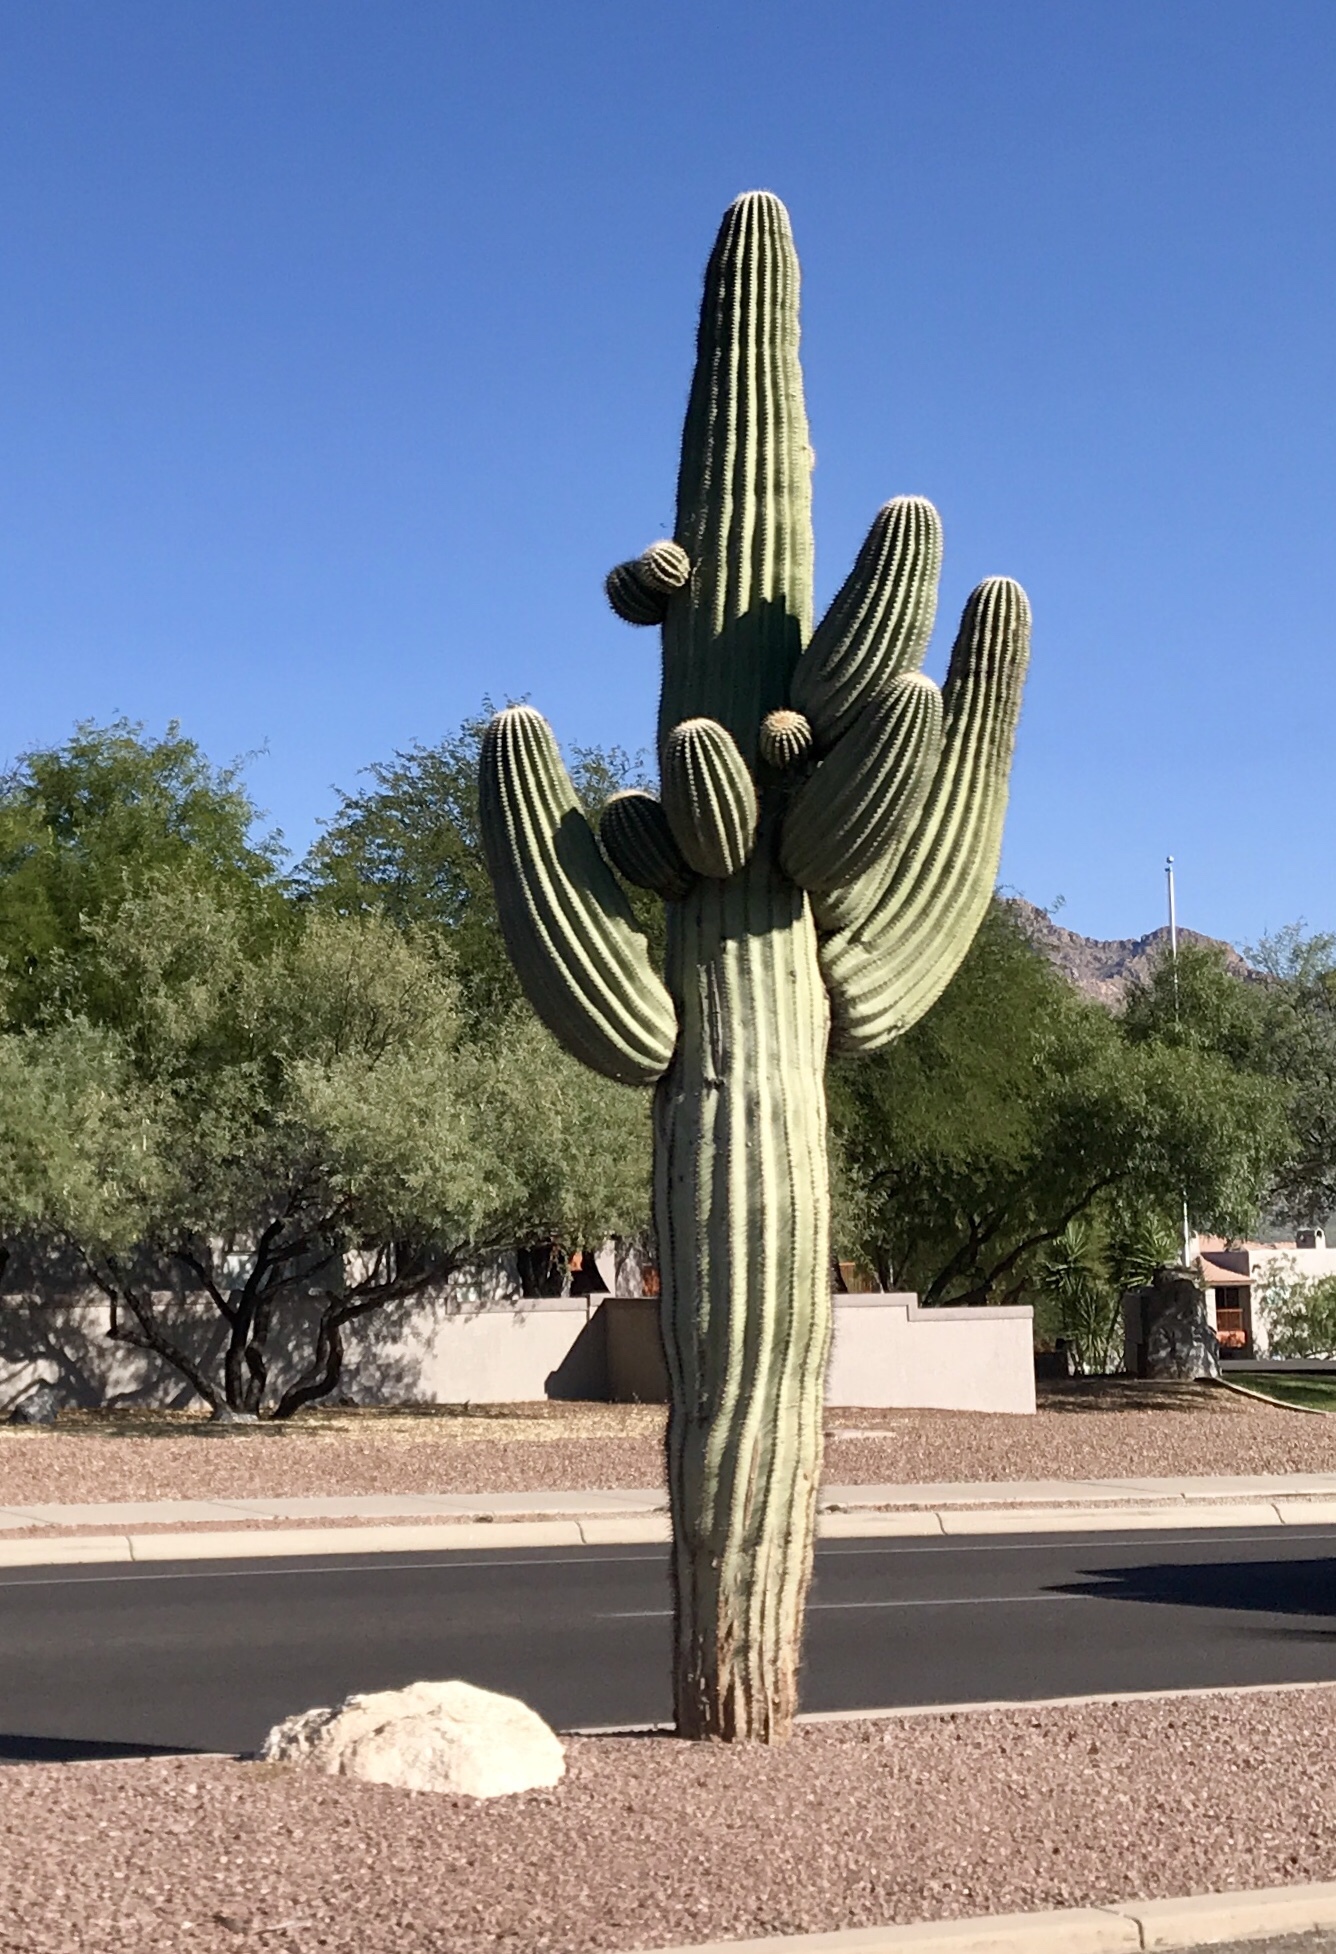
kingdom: Plantae
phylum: Tracheophyta
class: Magnoliopsida
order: Caryophyllales
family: Cactaceae
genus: Carnegiea
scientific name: Carnegiea gigantea
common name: Saguaro
